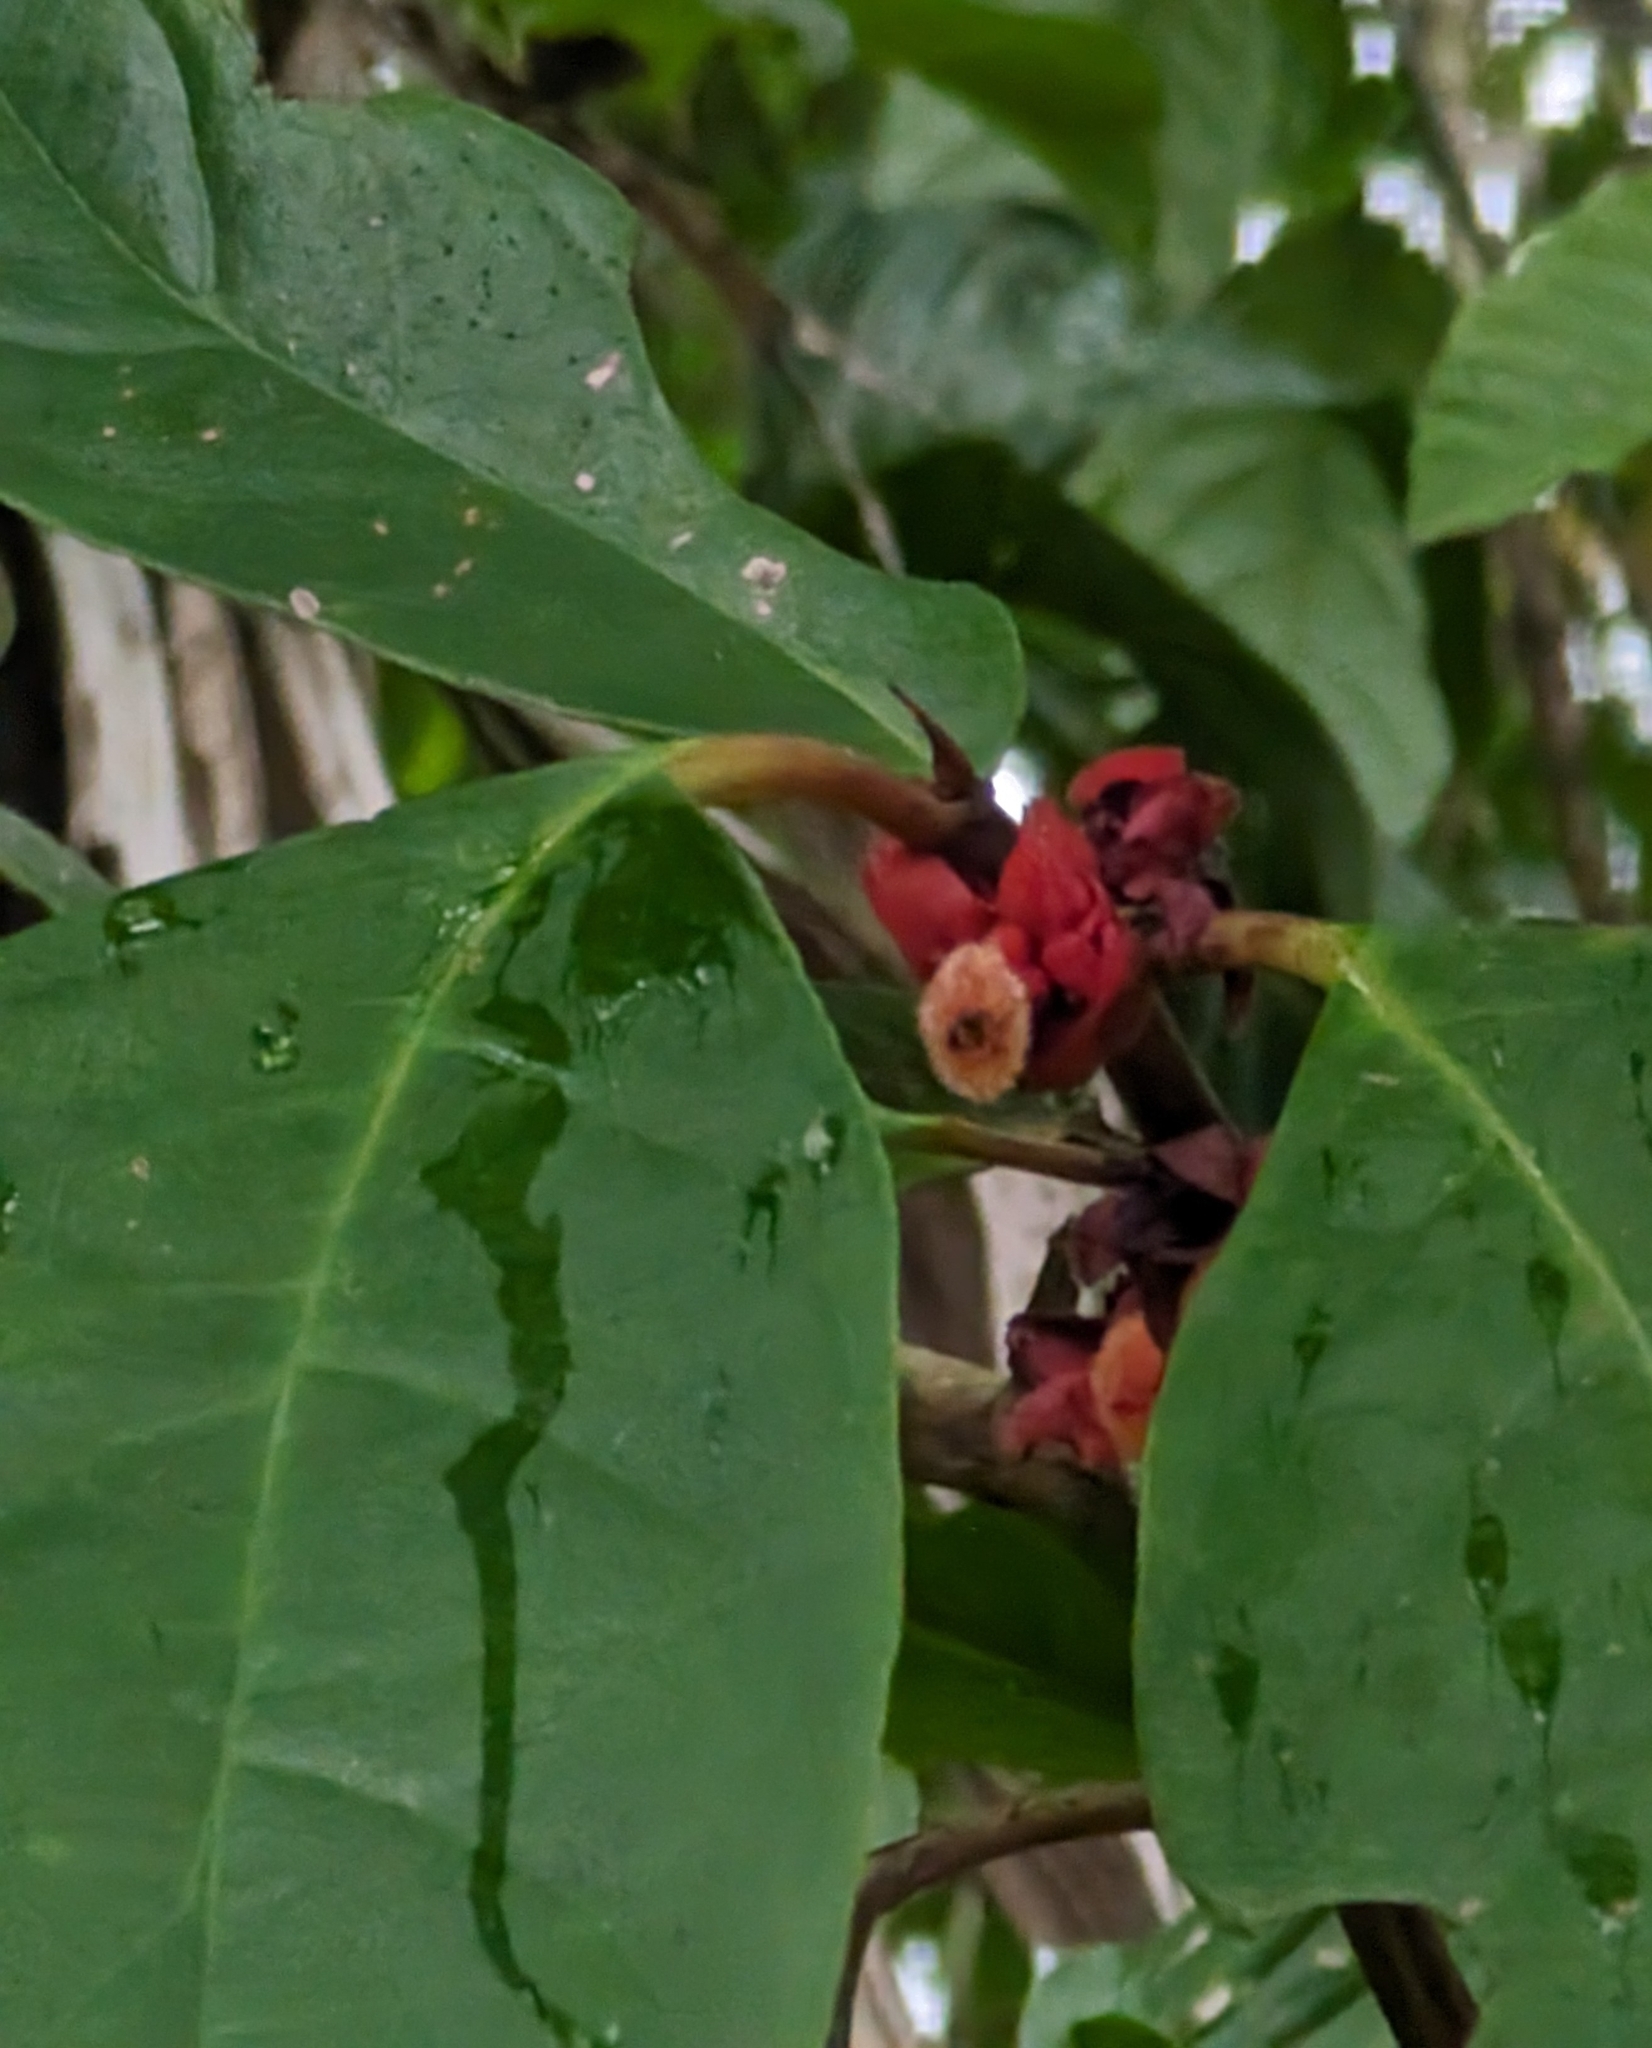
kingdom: Plantae
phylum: Tracheophyta
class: Magnoliopsida
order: Lamiales
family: Gesneriaceae
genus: Drymonia
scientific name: Drymonia coriacea
